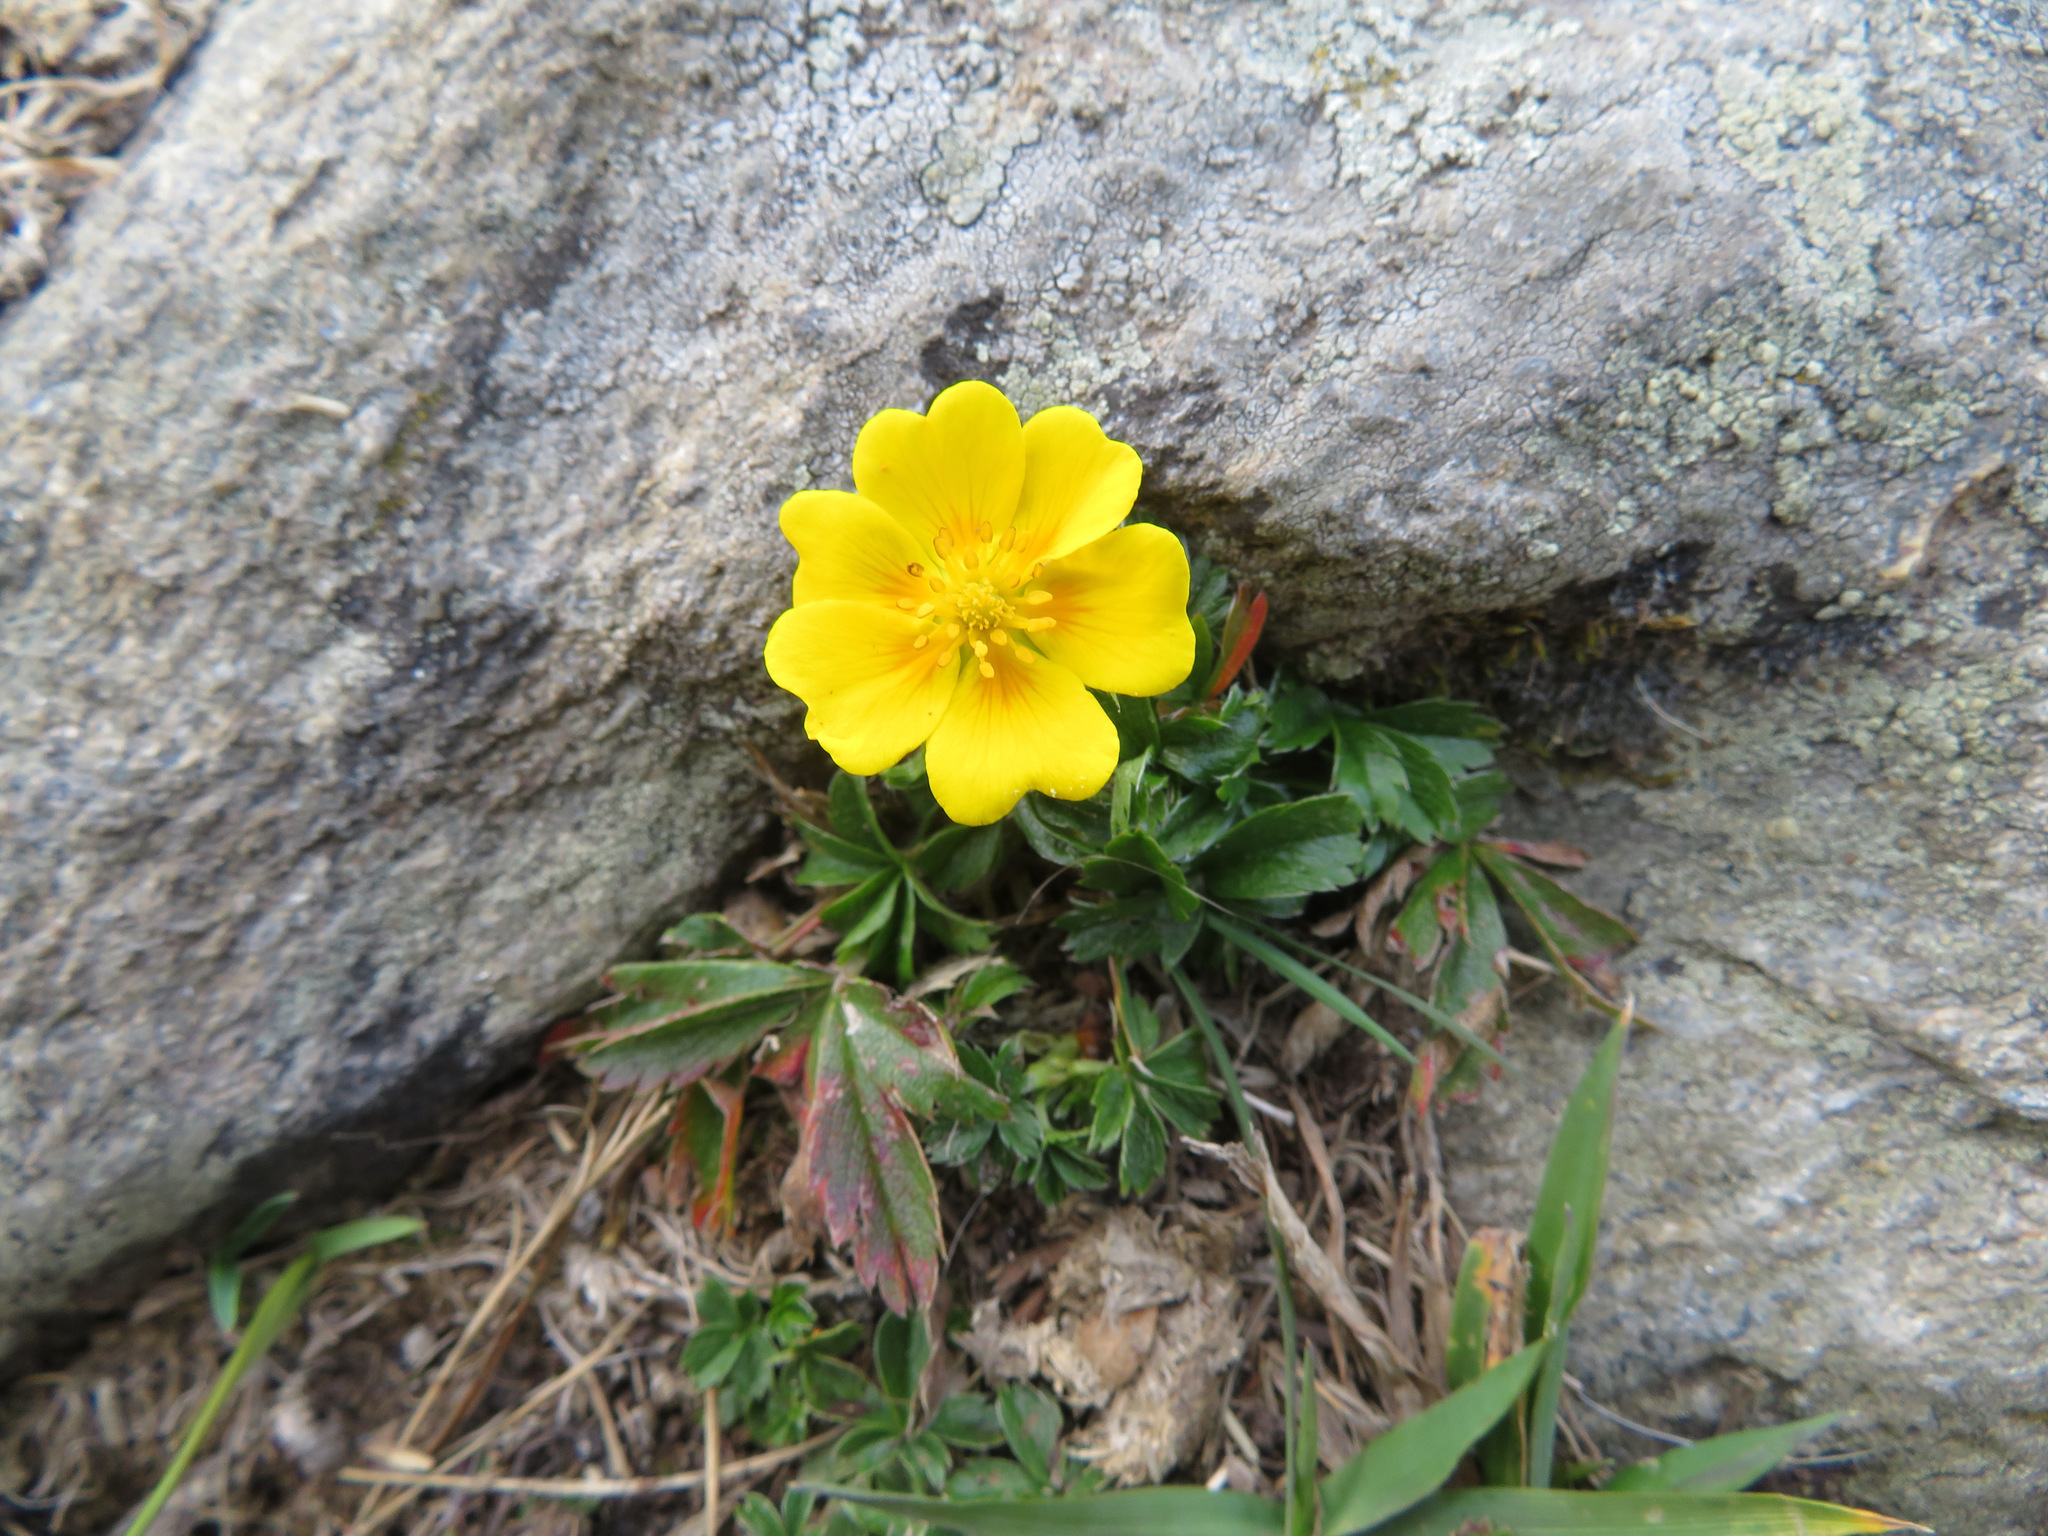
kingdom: Plantae
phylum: Tracheophyta
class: Magnoliopsida
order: Rosales
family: Rosaceae
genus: Potentilla
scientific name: Potentilla aurea
